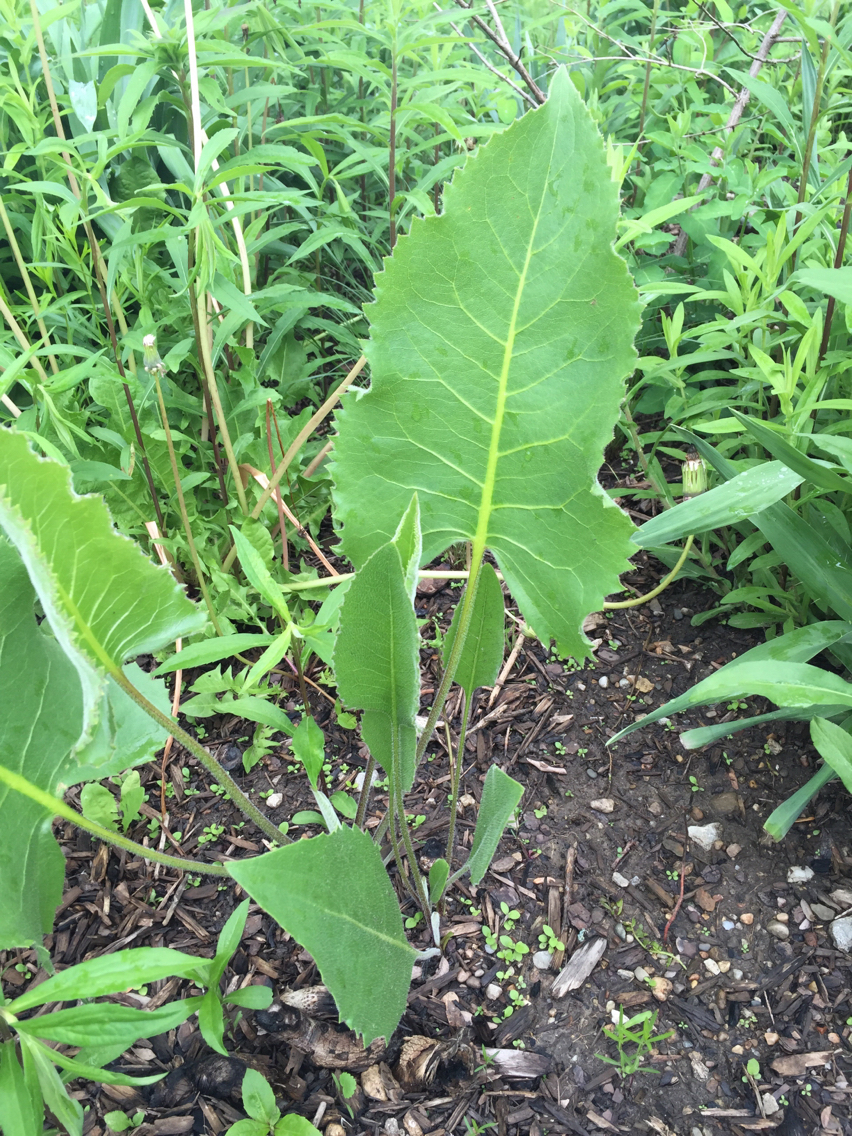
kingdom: Plantae
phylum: Tracheophyta
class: Magnoliopsida
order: Asterales
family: Asteraceae
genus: Silphium
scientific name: Silphium terebinthinaceum
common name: Basal-leaf rosinweed
